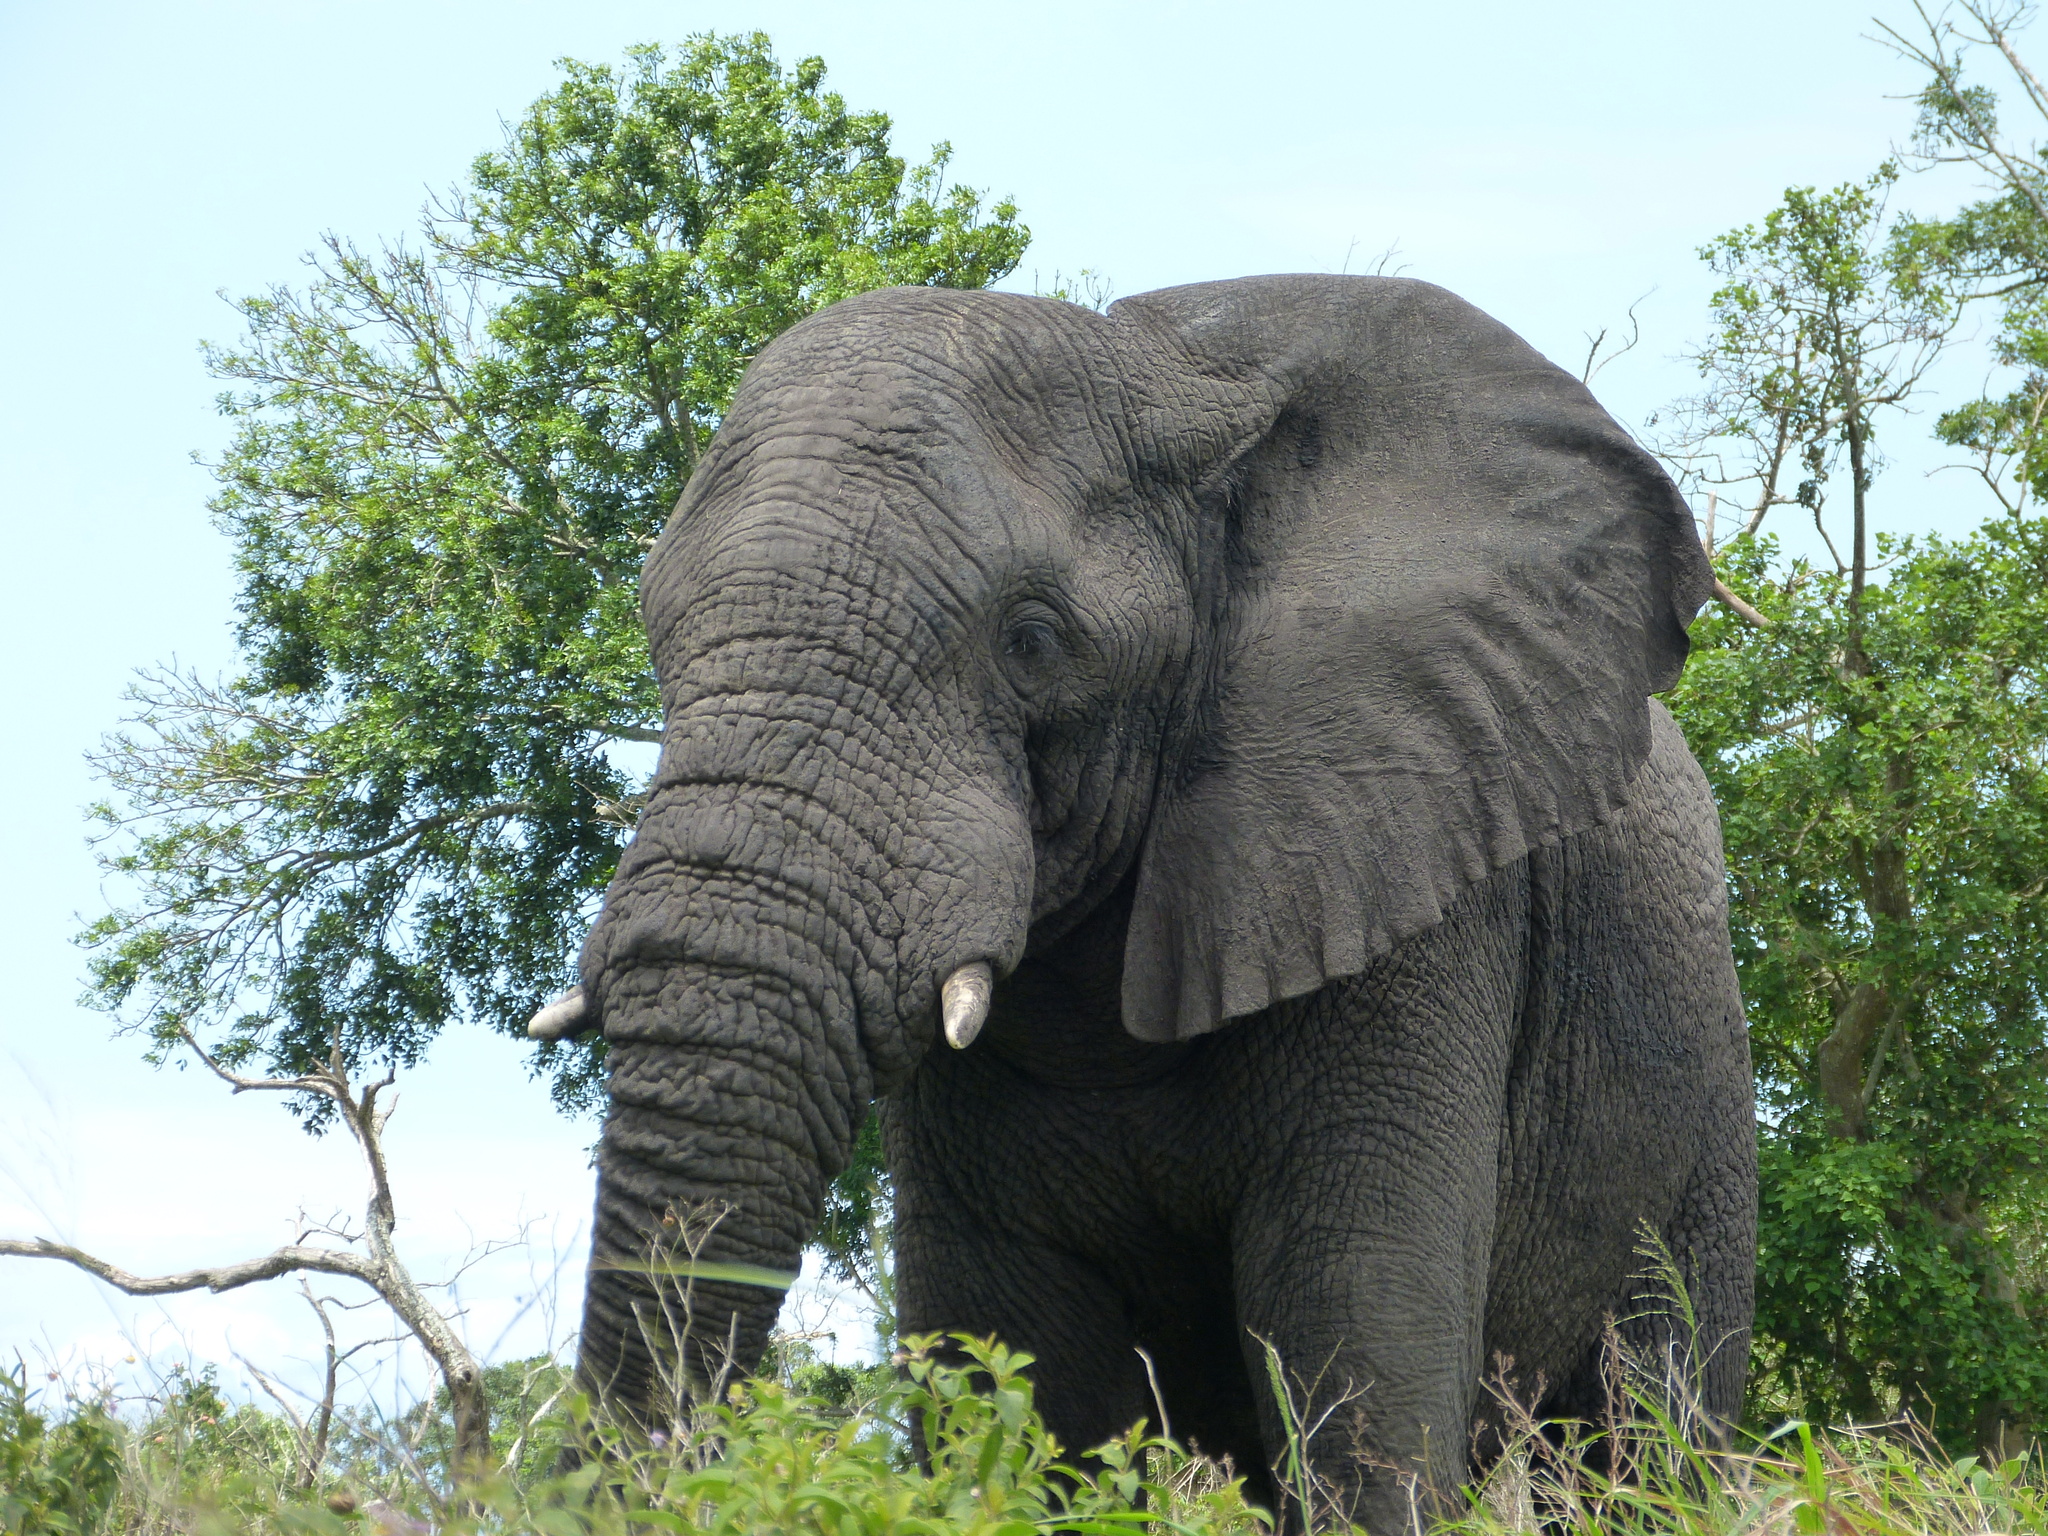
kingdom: Animalia
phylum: Chordata
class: Mammalia
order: Proboscidea
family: Elephantidae
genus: Loxodonta
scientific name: Loxodonta africana
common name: African elephant
